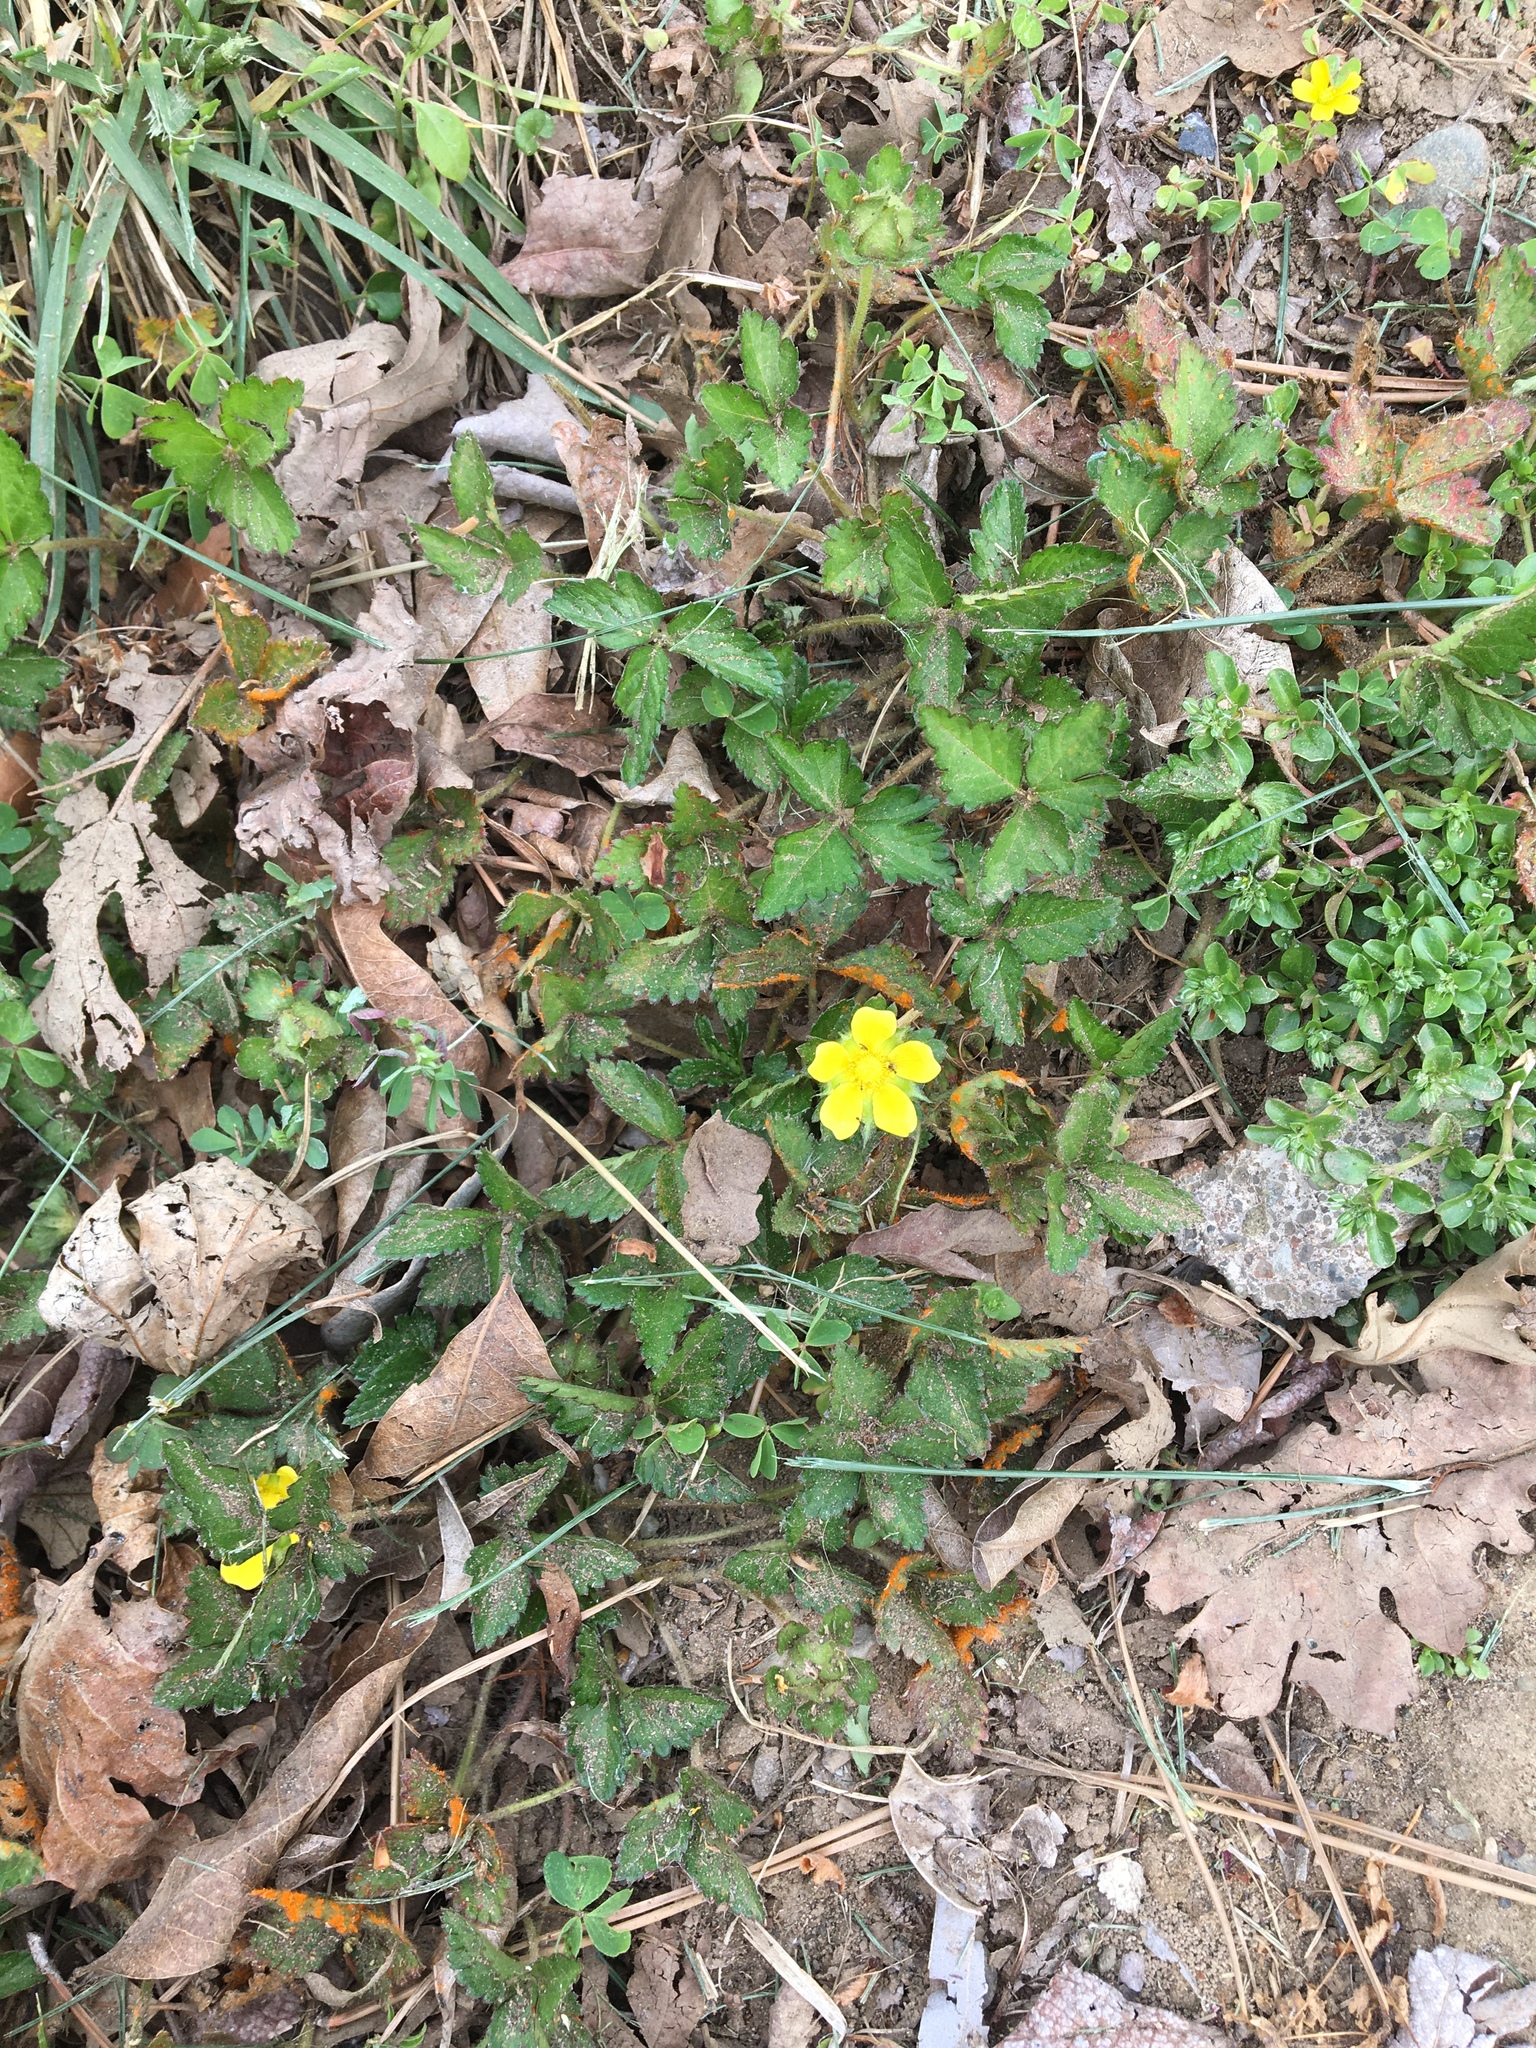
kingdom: Plantae
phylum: Tracheophyta
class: Magnoliopsida
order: Rosales
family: Rosaceae
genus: Potentilla
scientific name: Potentilla indica
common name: Yellow-flowered strawberry
